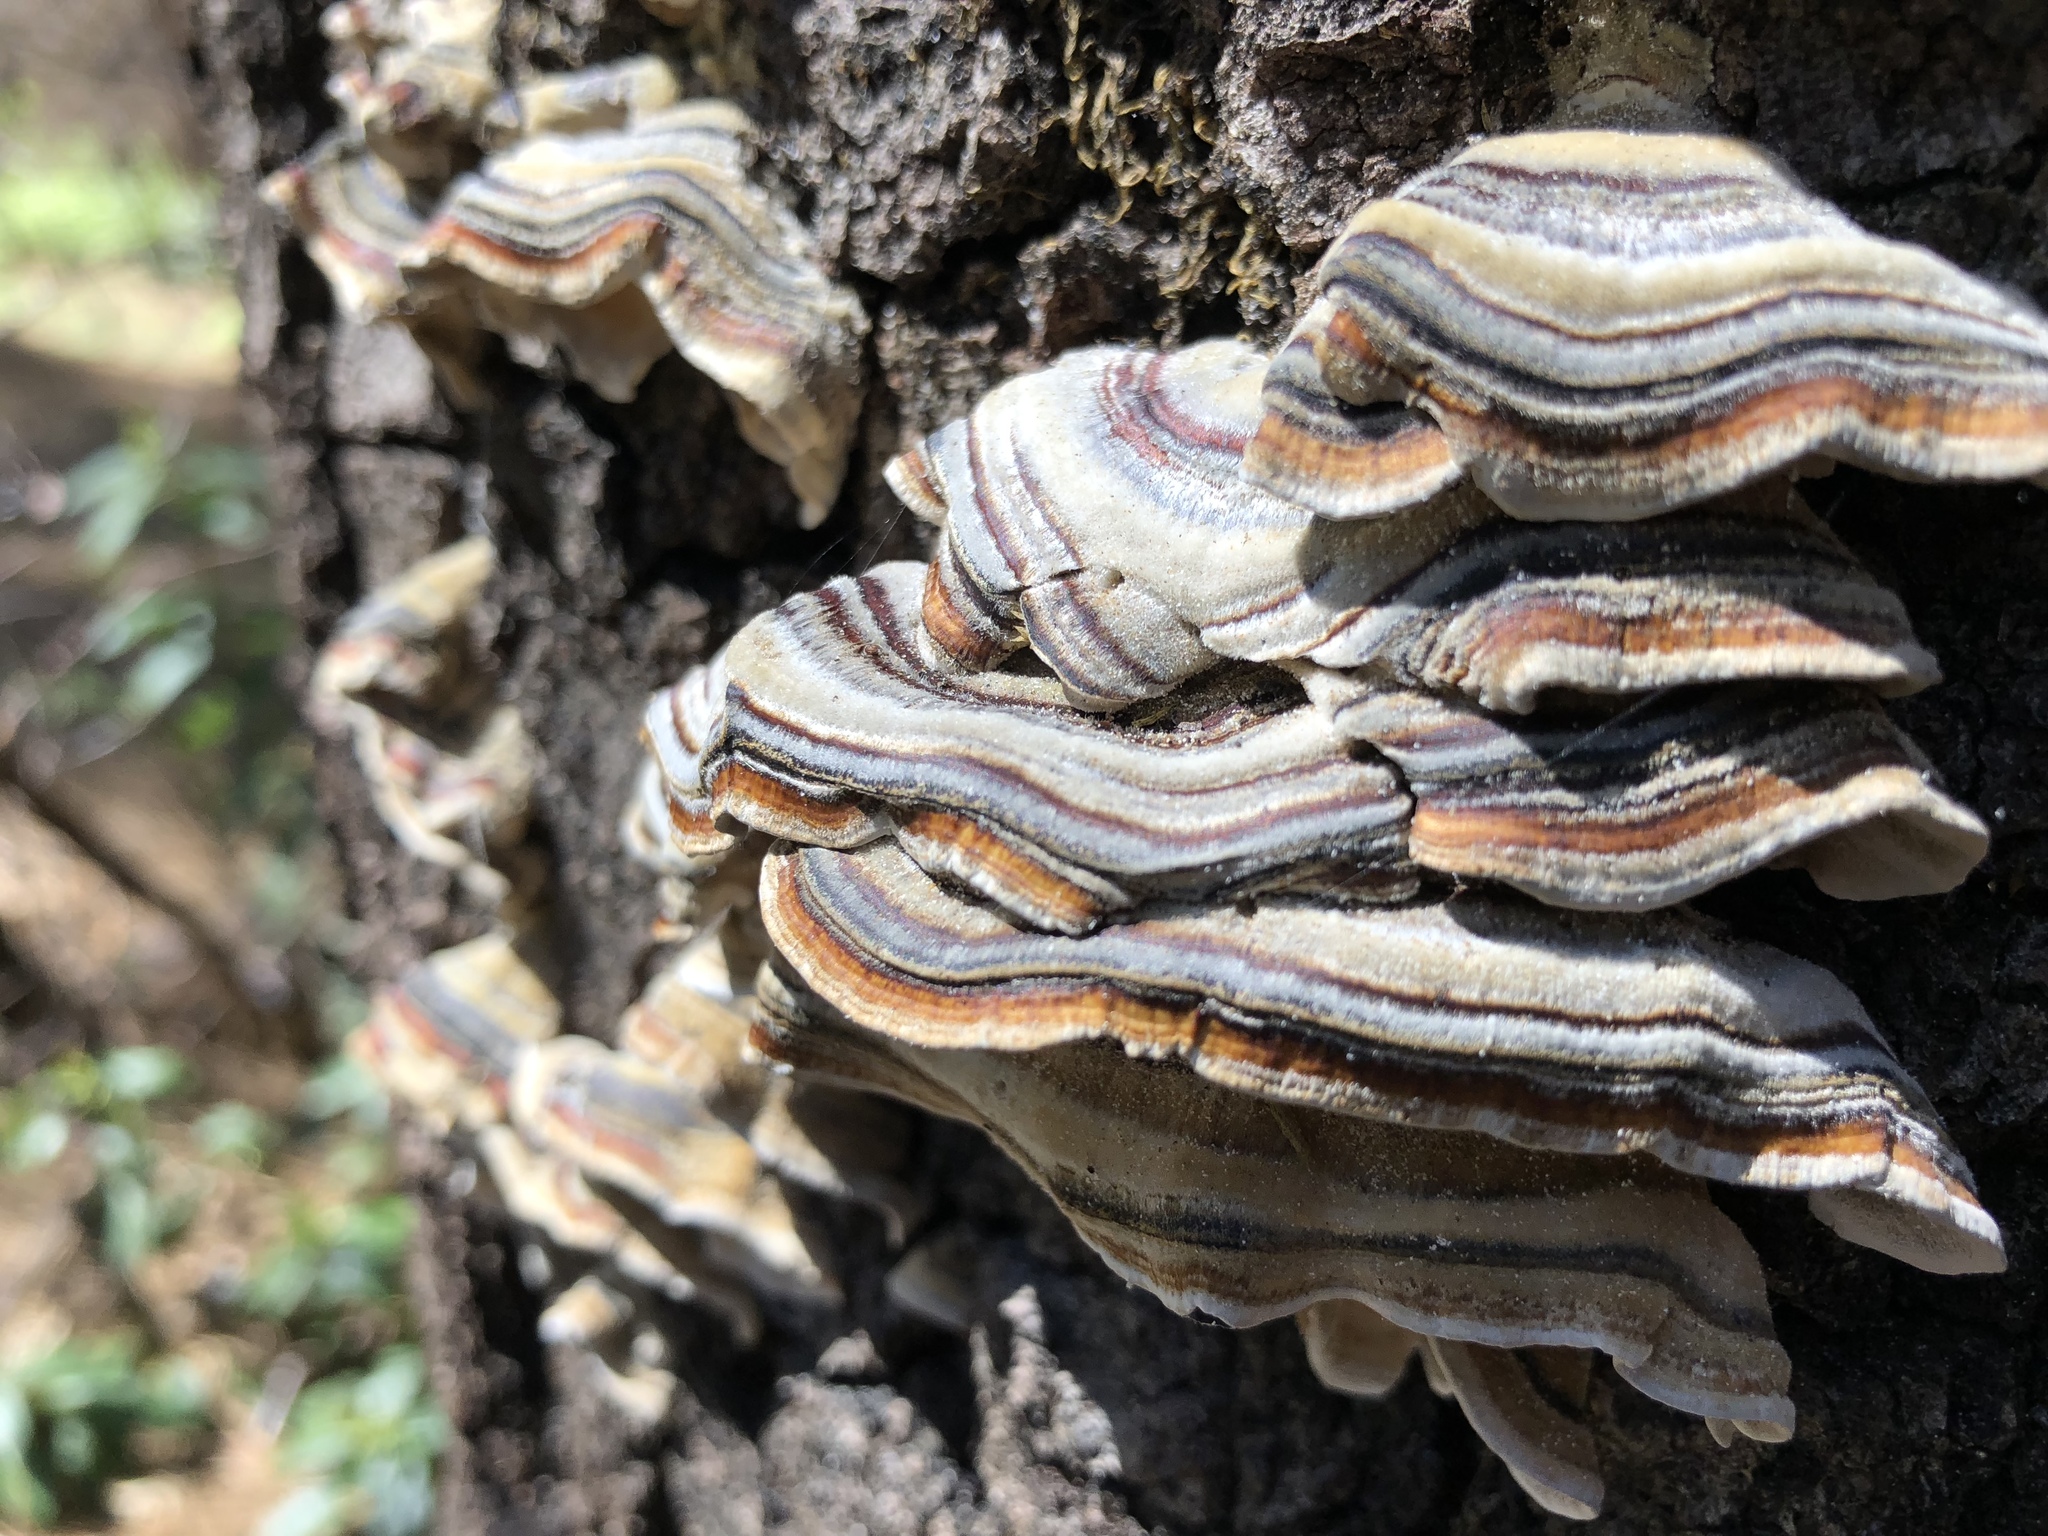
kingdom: Fungi
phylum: Basidiomycota
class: Agaricomycetes
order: Polyporales
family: Polyporaceae
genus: Trametes
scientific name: Trametes versicolor
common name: Turkeytail
